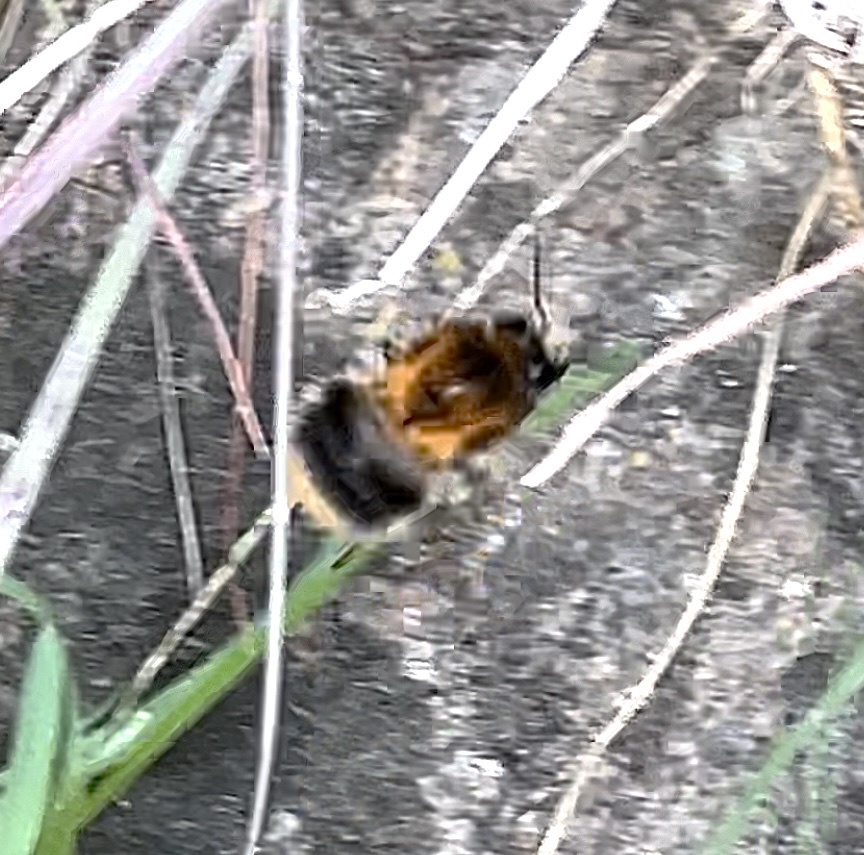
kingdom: Animalia
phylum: Arthropoda
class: Insecta
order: Hymenoptera
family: Apidae
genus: Bombus
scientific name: Bombus pascuorum
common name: Common carder bee
